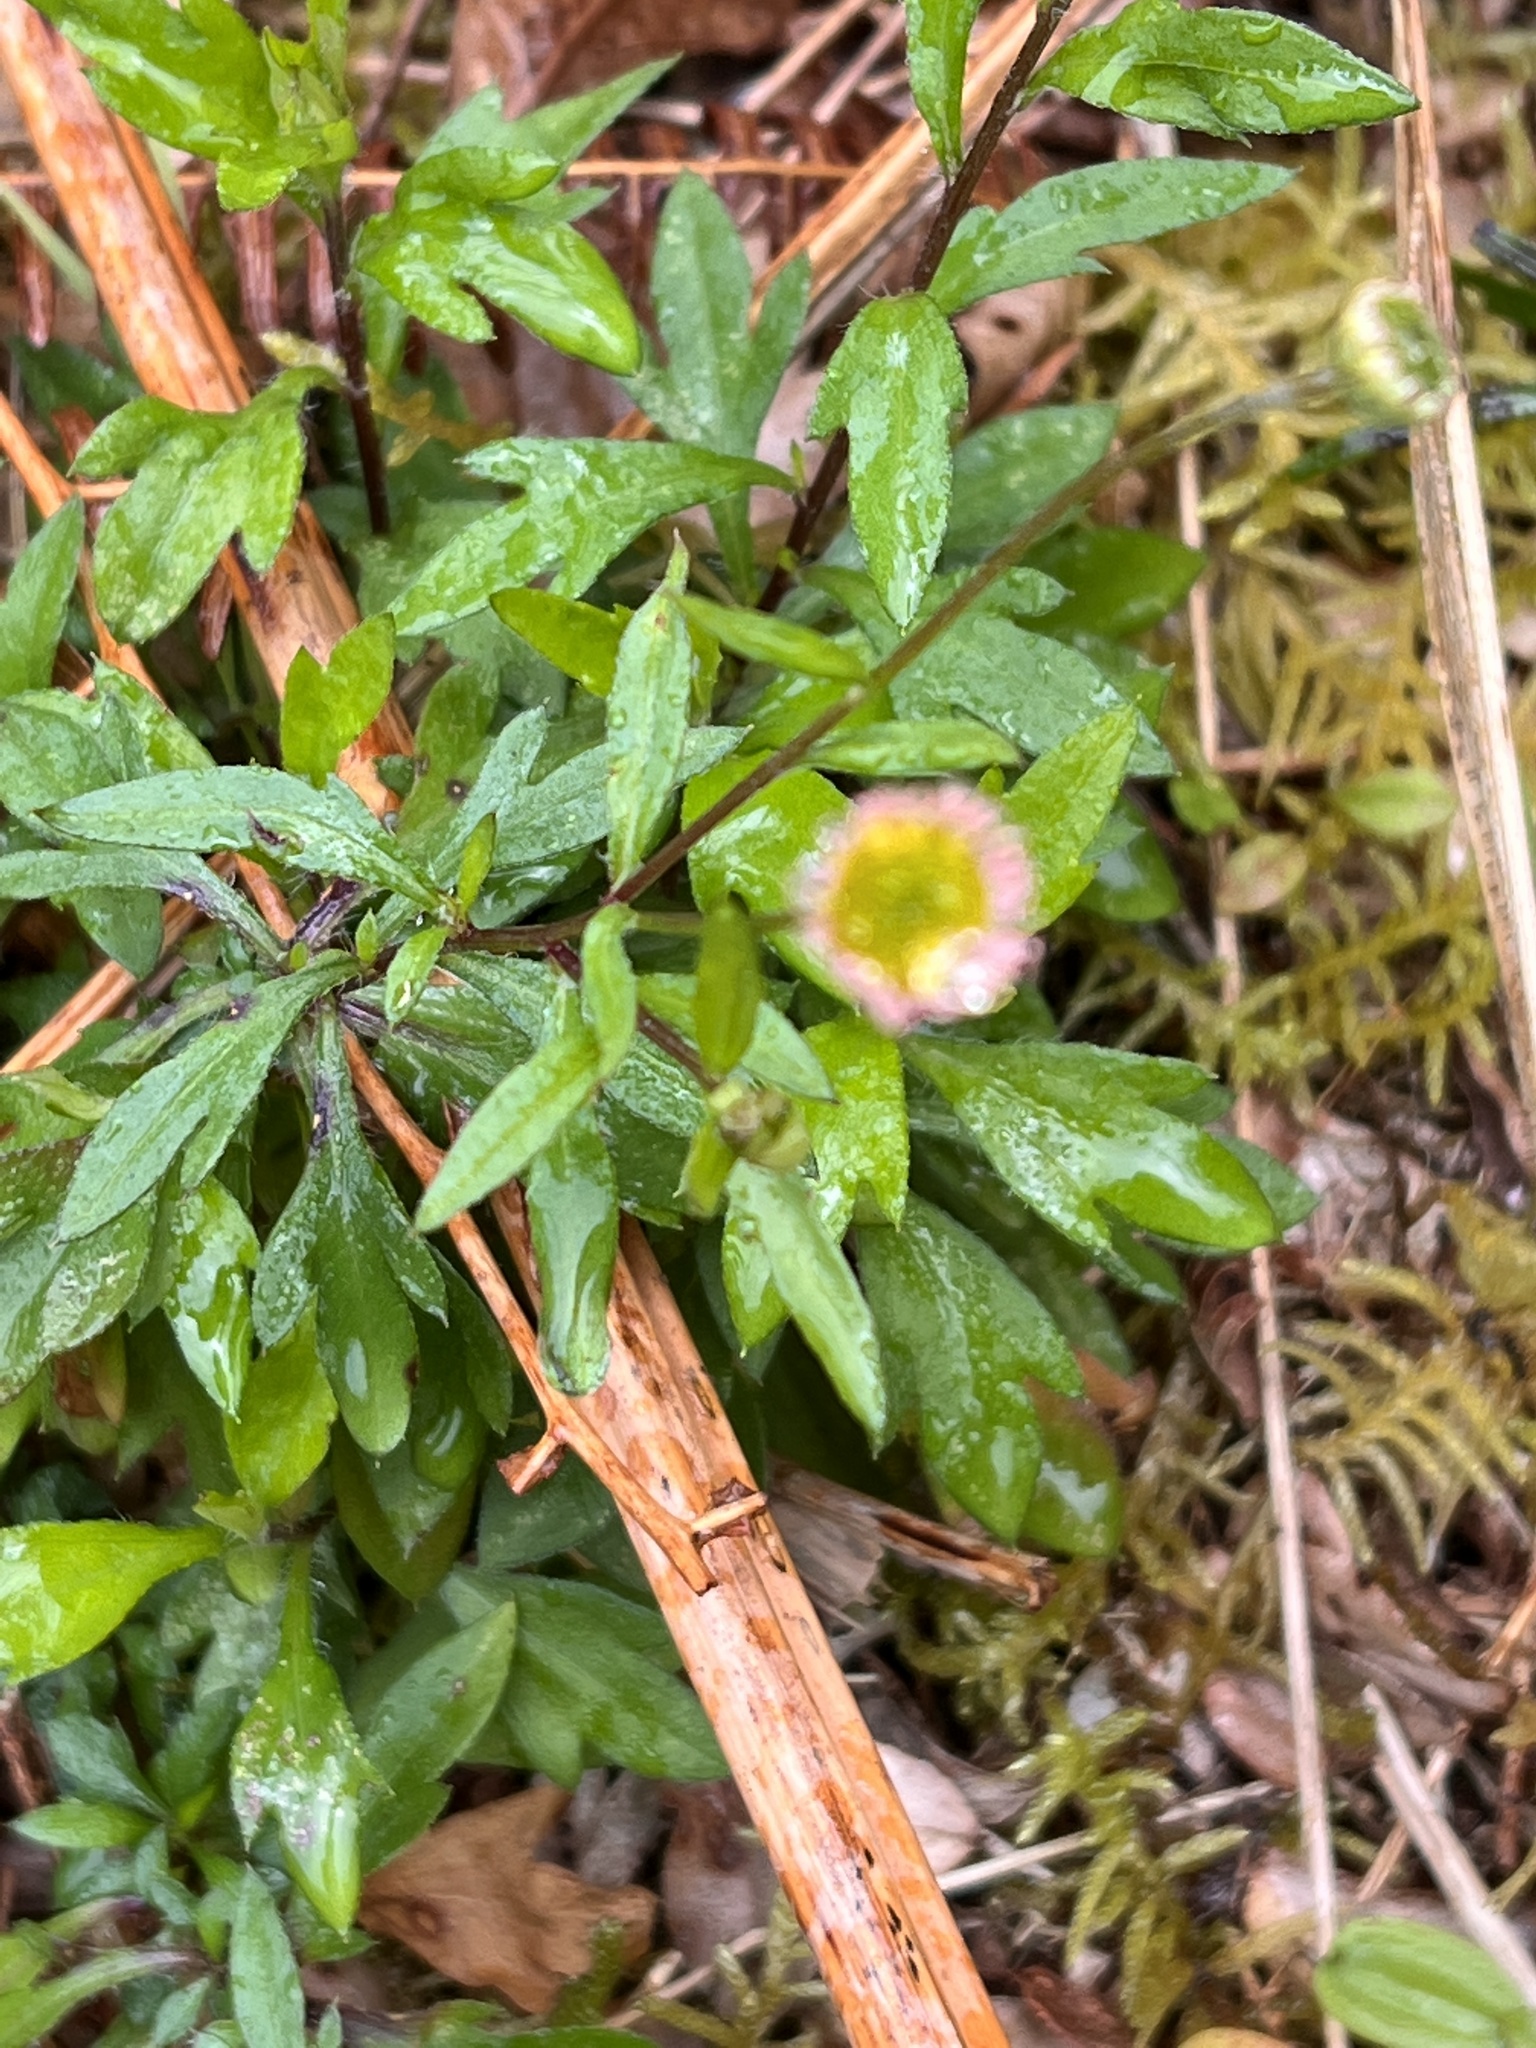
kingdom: Plantae
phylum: Tracheophyta
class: Magnoliopsida
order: Asterales
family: Asteraceae
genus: Erigeron
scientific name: Erigeron karvinskianus
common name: Mexican fleabane
